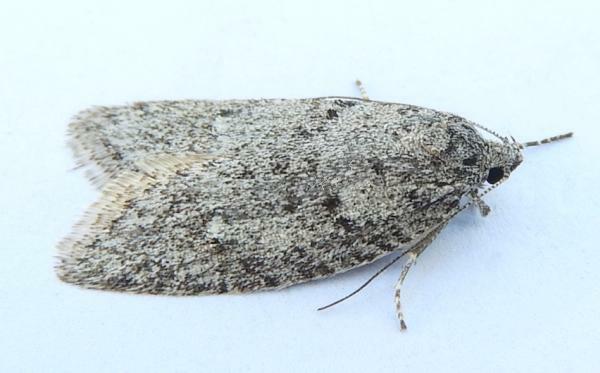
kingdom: Animalia
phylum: Arthropoda
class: Insecta
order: Lepidoptera
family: Depressariidae
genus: Semioscopis
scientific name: Semioscopis inornata
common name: Poplar micromoth
